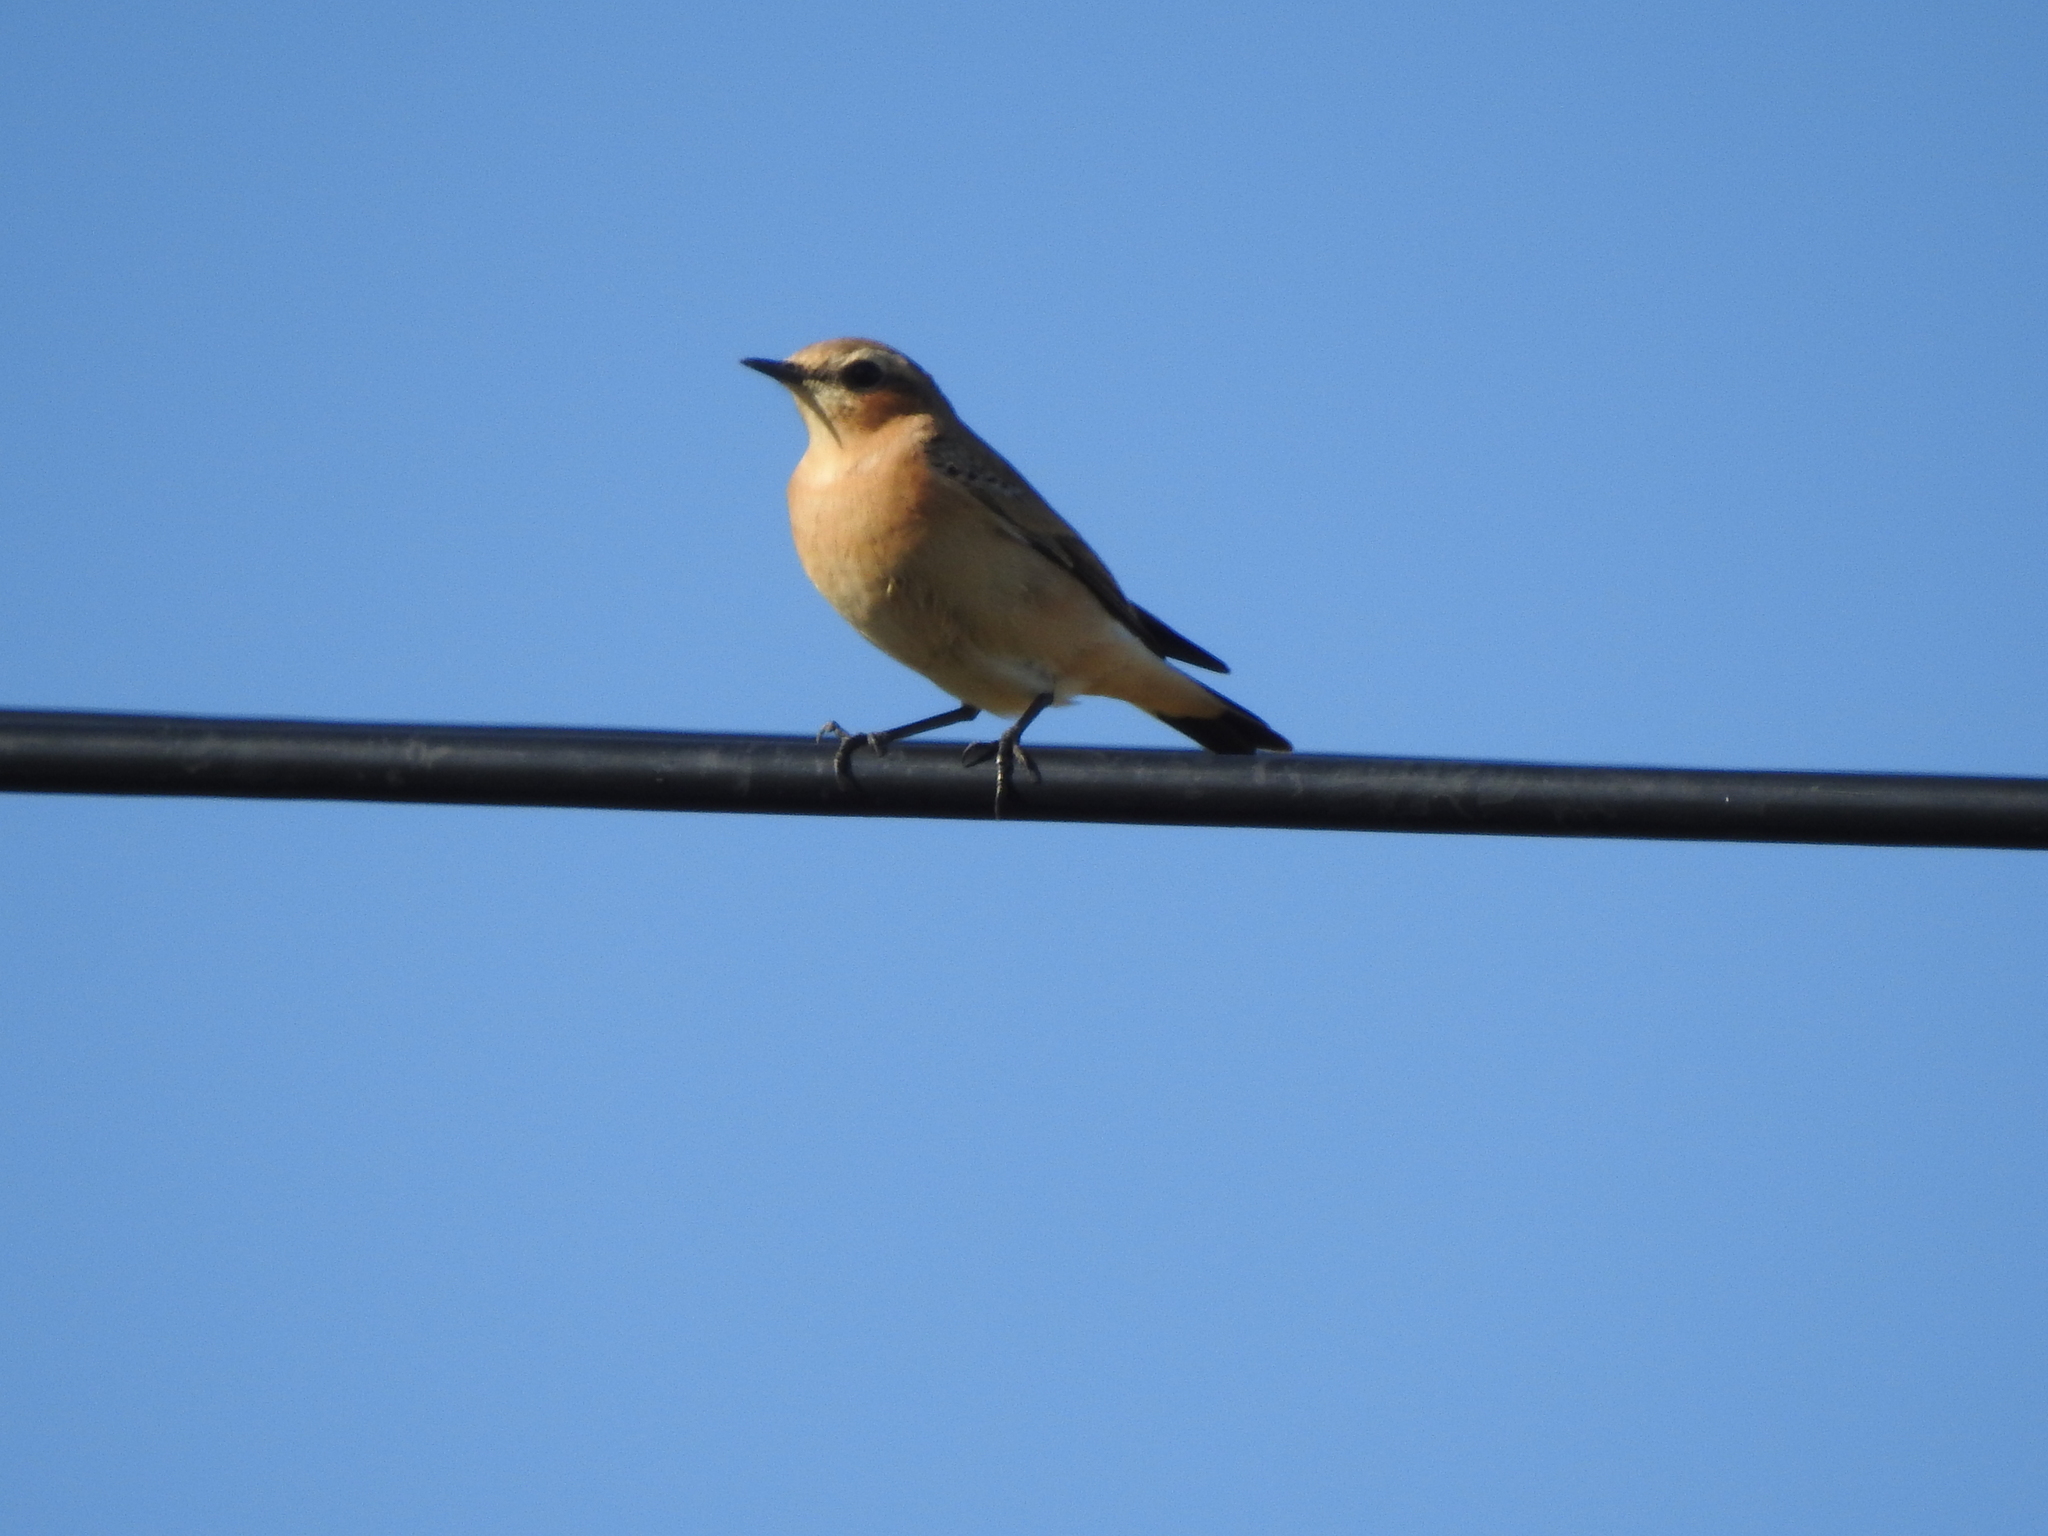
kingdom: Animalia
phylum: Chordata
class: Aves
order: Passeriformes
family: Muscicapidae
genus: Oenanthe
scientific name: Oenanthe oenanthe
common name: Northern wheatear
